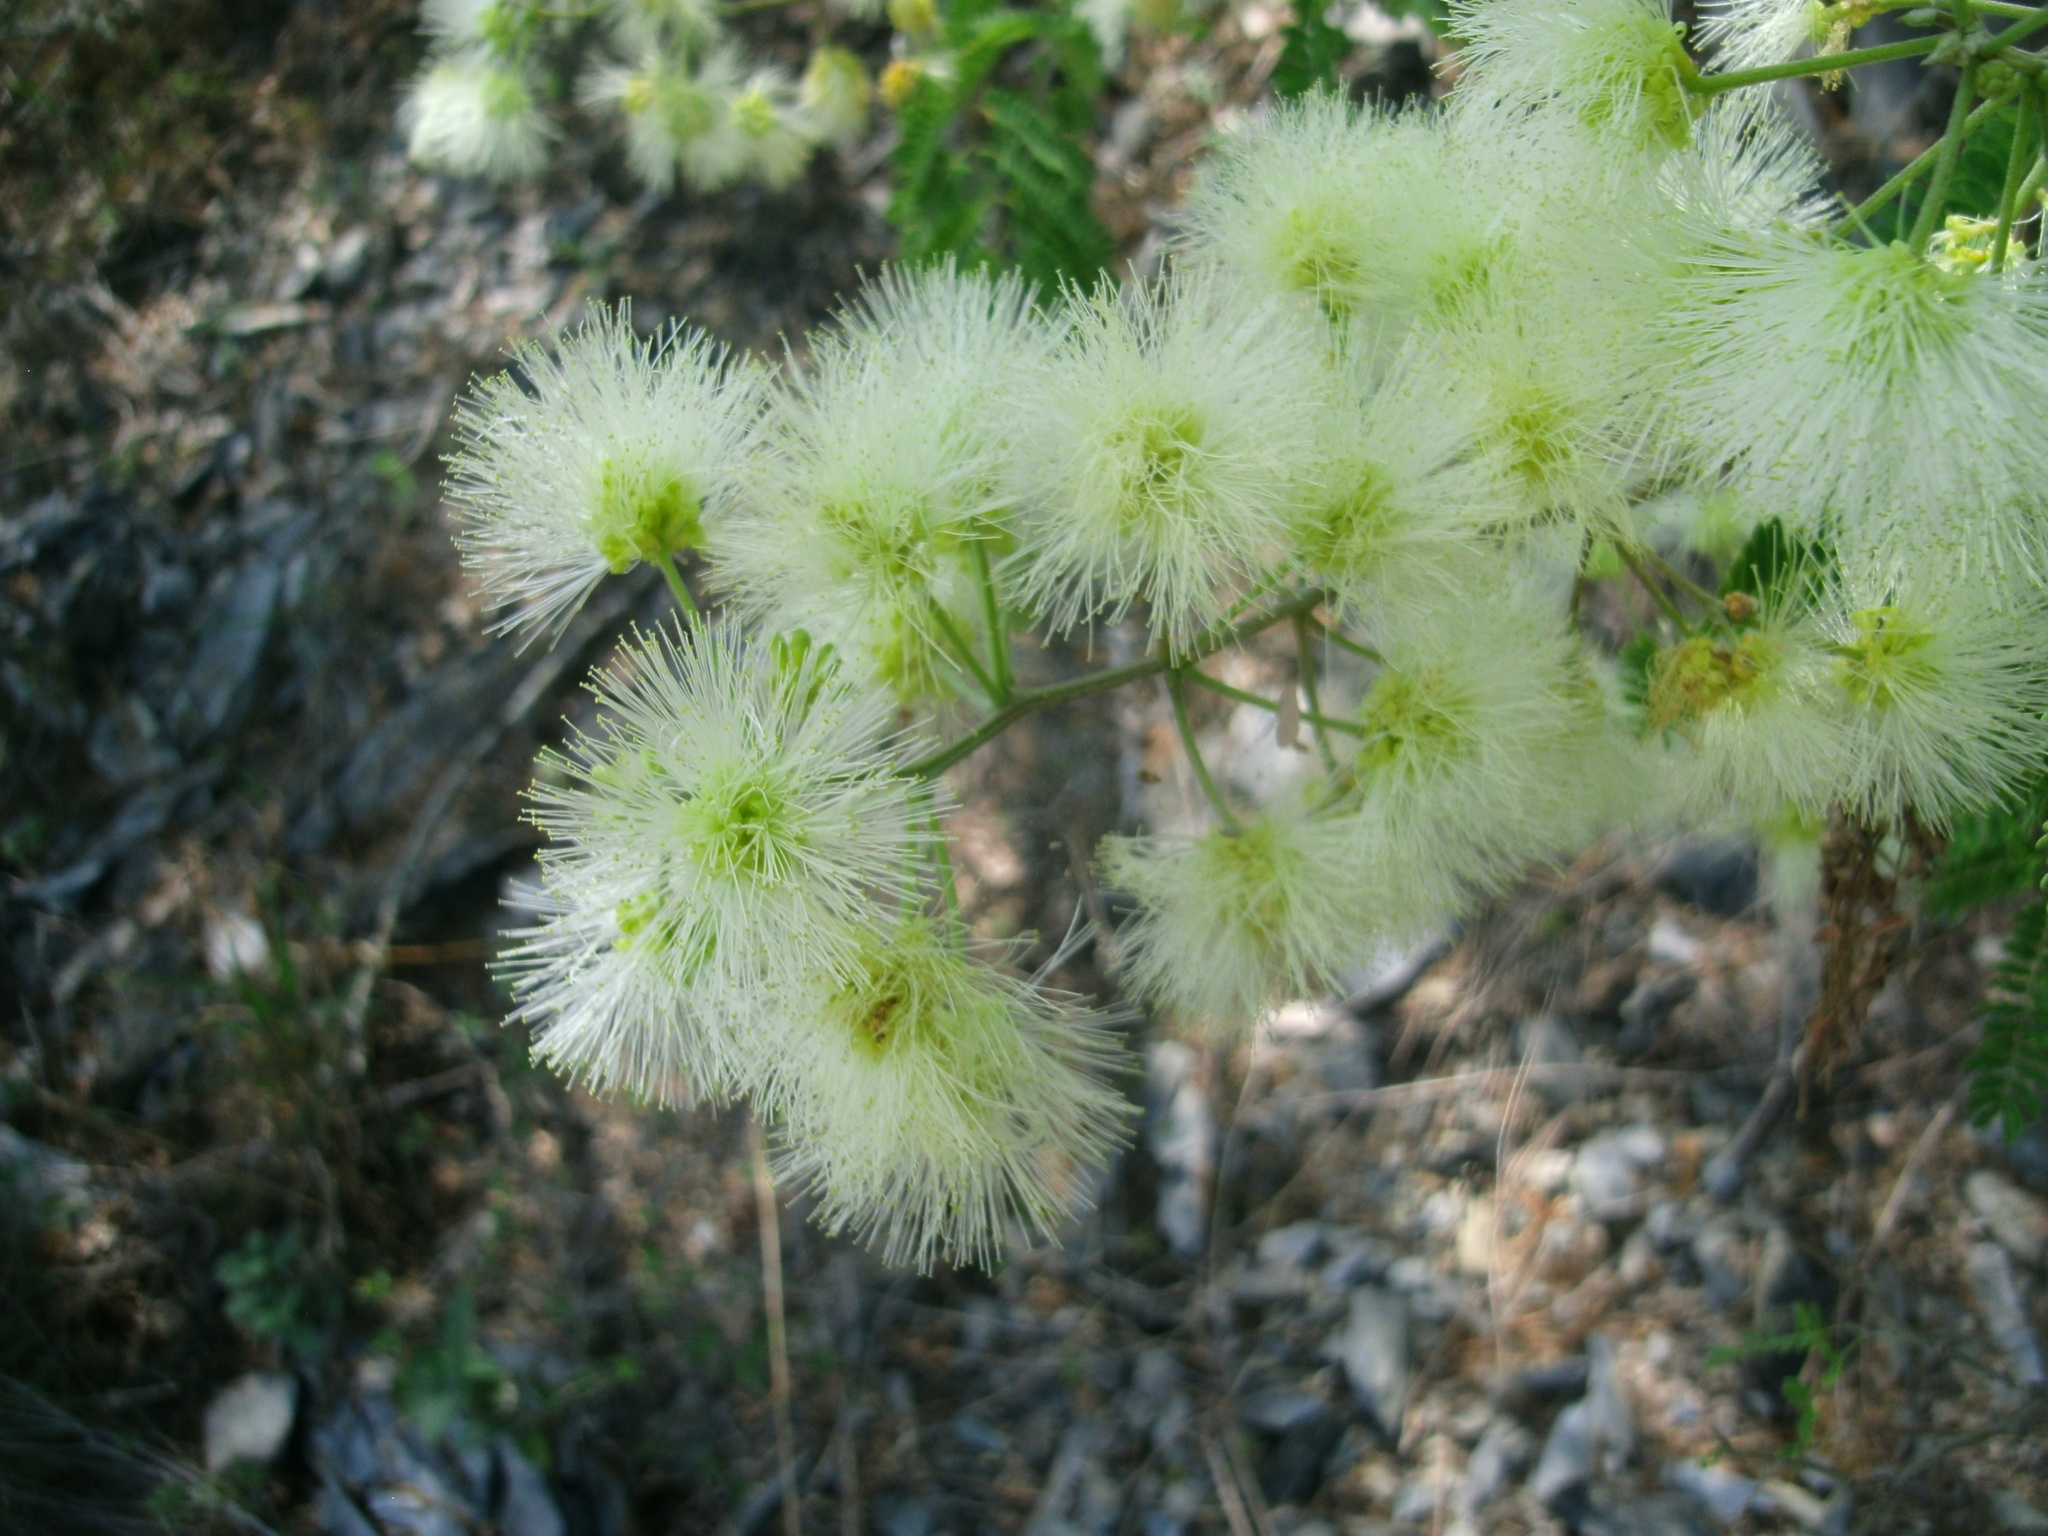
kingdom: Plantae
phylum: Tracheophyta
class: Magnoliopsida
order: Fabales
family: Fabaceae
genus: Havardia
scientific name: Havardia pallens
